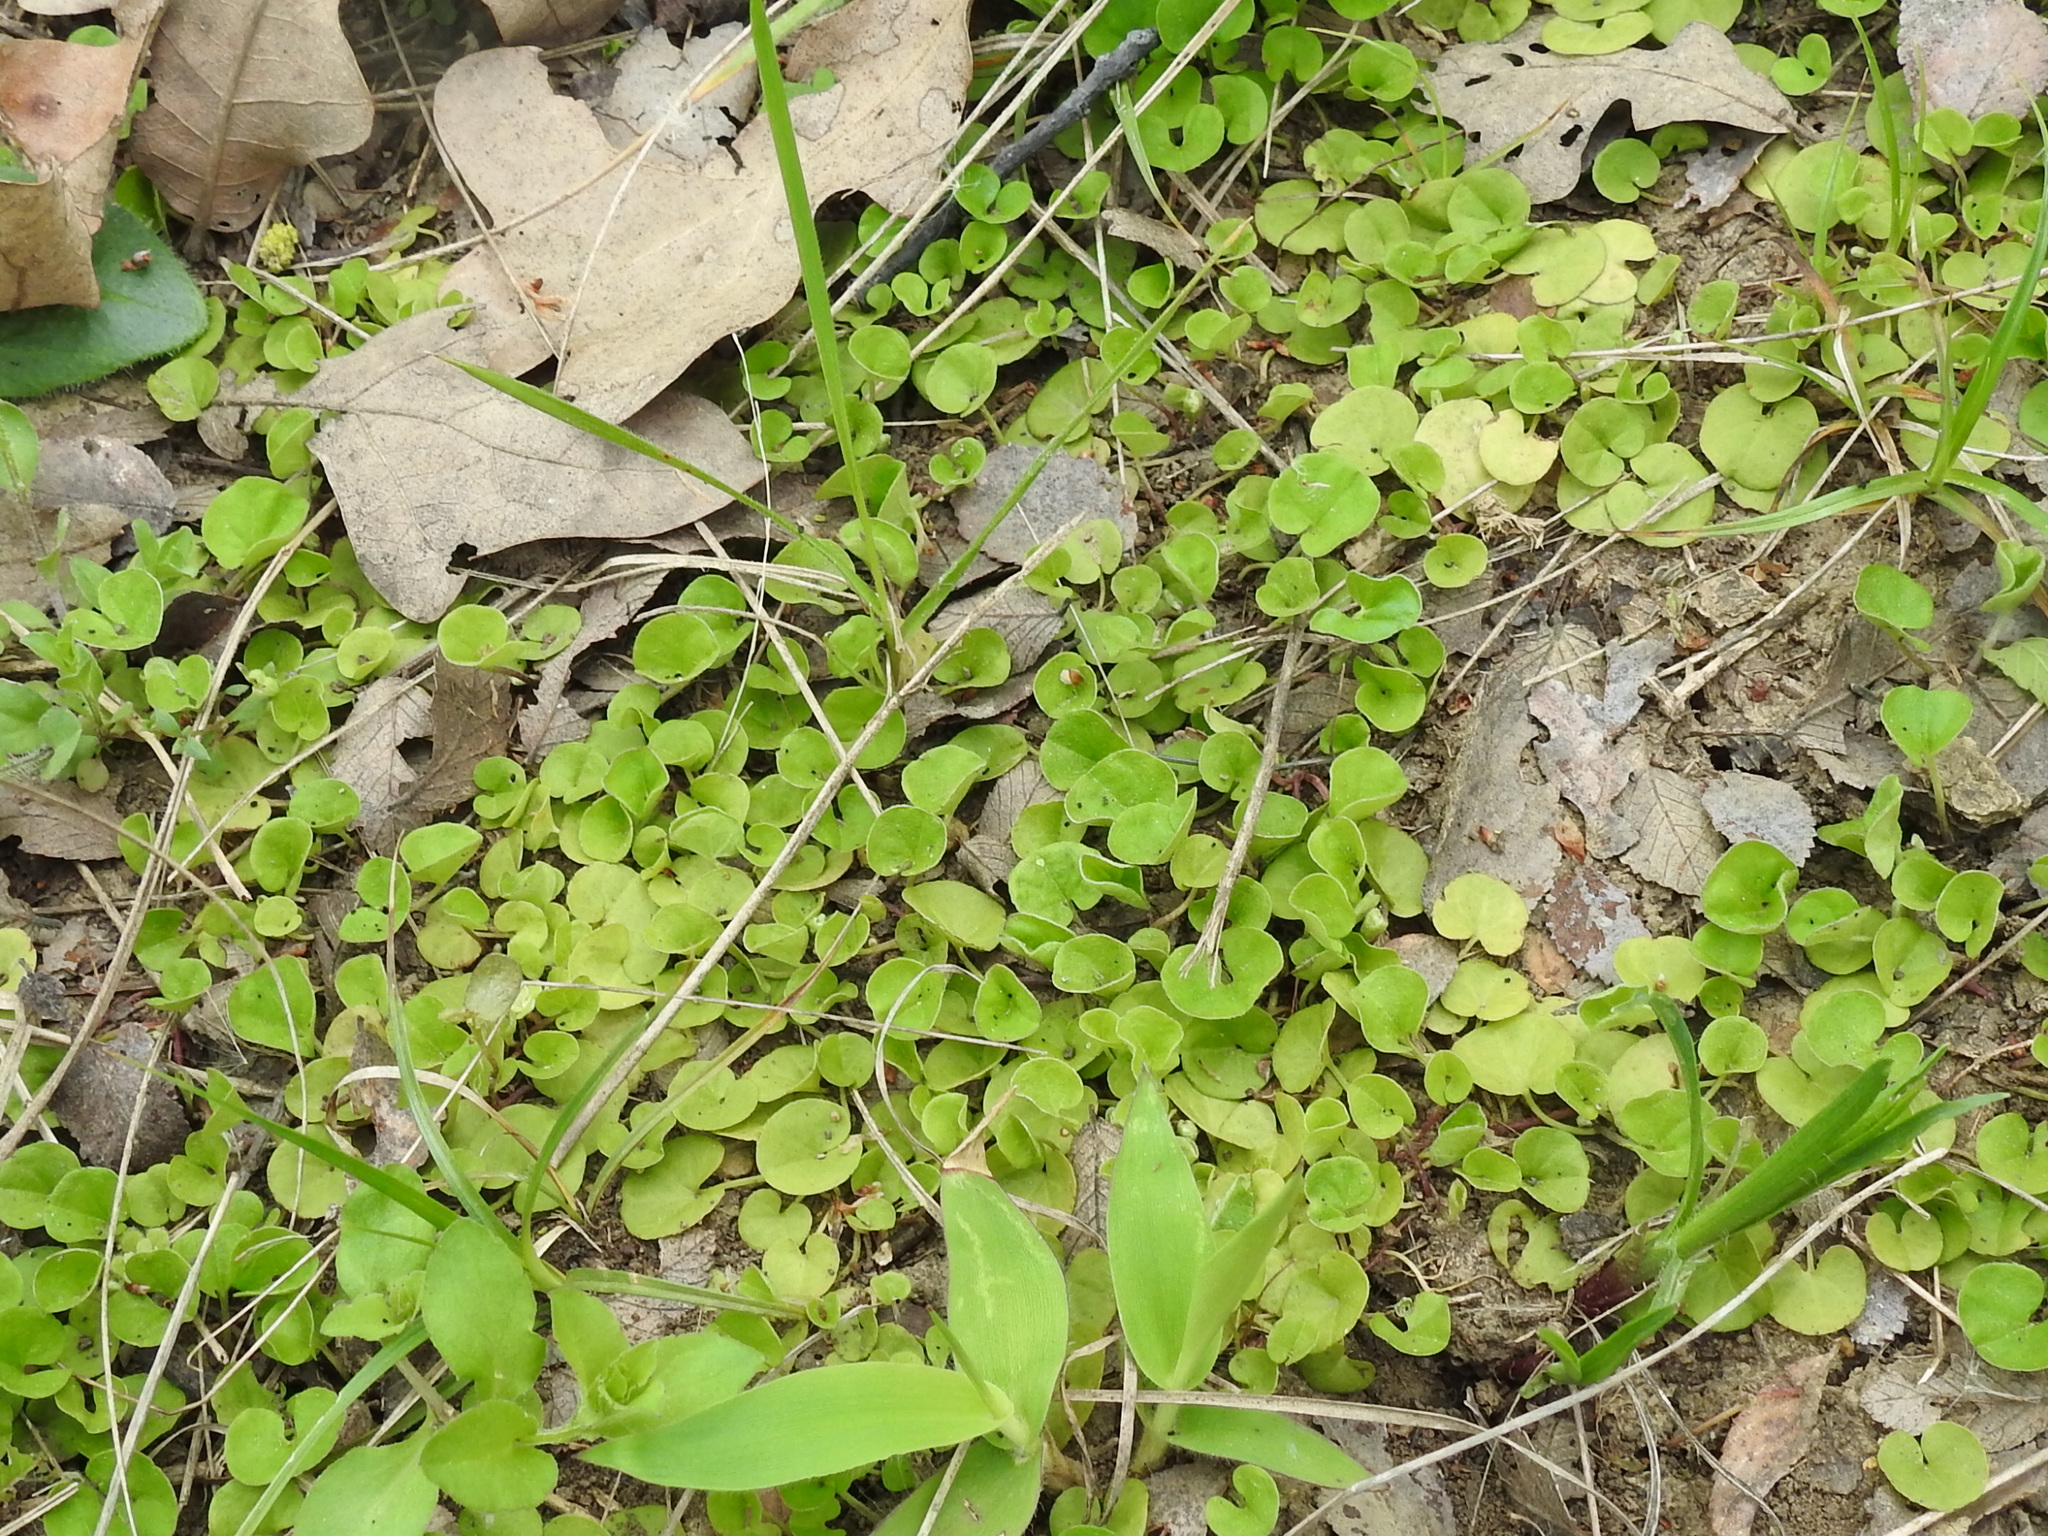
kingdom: Plantae
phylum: Tracheophyta
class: Magnoliopsida
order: Solanales
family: Convolvulaceae
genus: Dichondra
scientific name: Dichondra carolinensis
